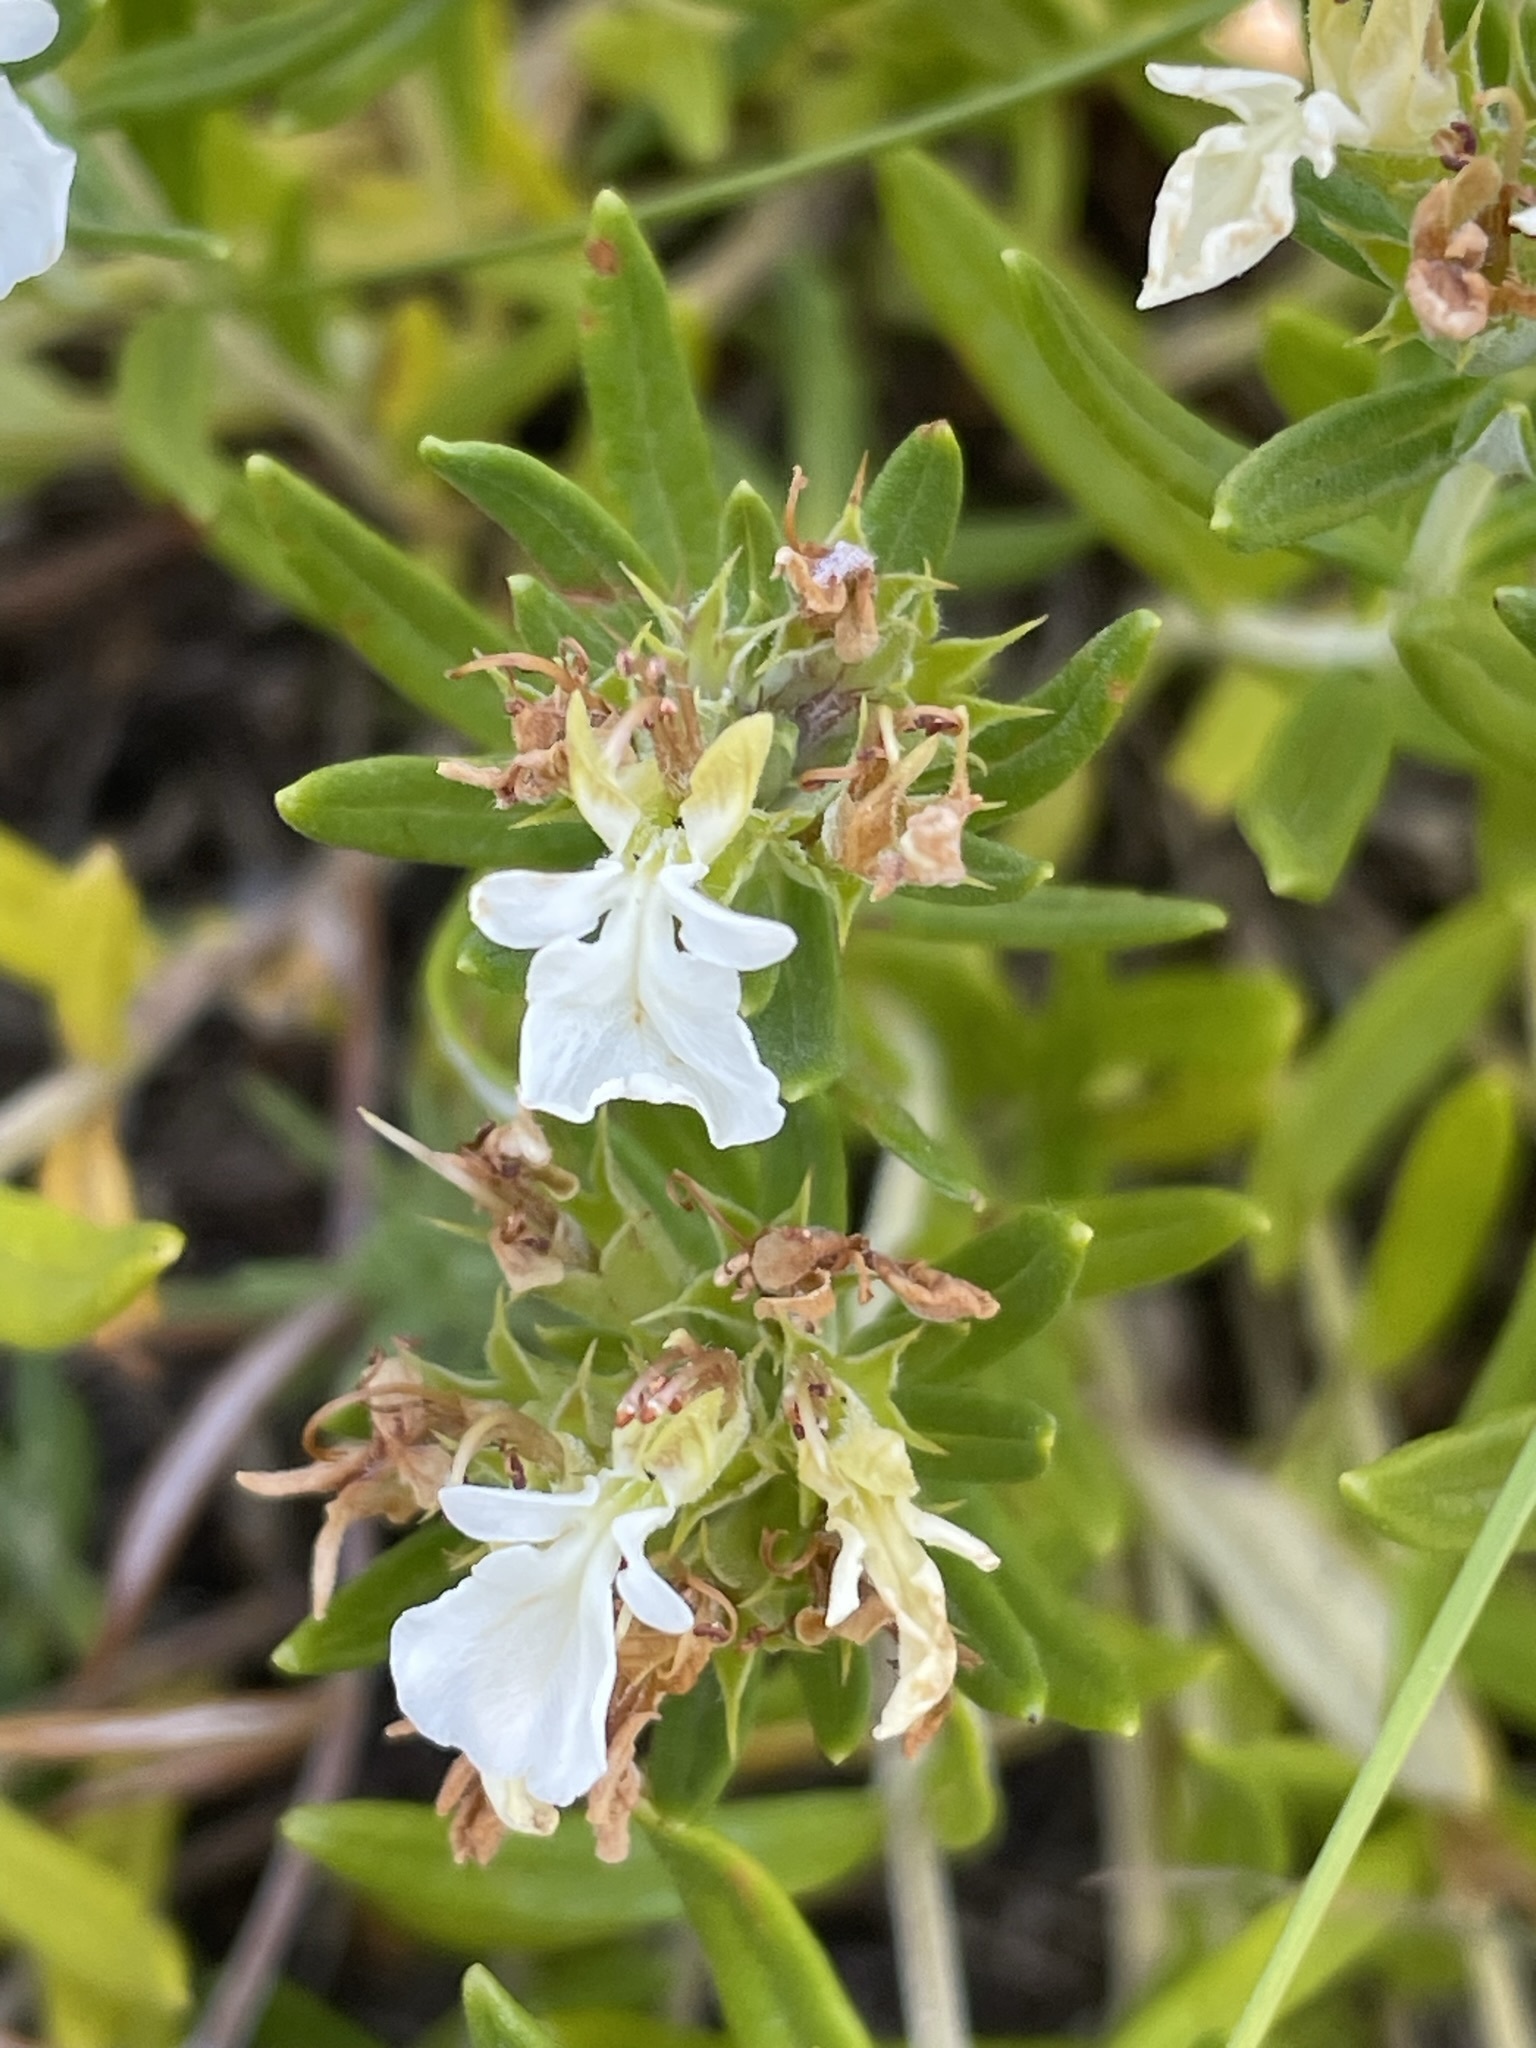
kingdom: Plantae
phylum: Tracheophyta
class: Magnoliopsida
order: Lamiales
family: Lamiaceae
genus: Teucrium
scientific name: Teucrium montanum
